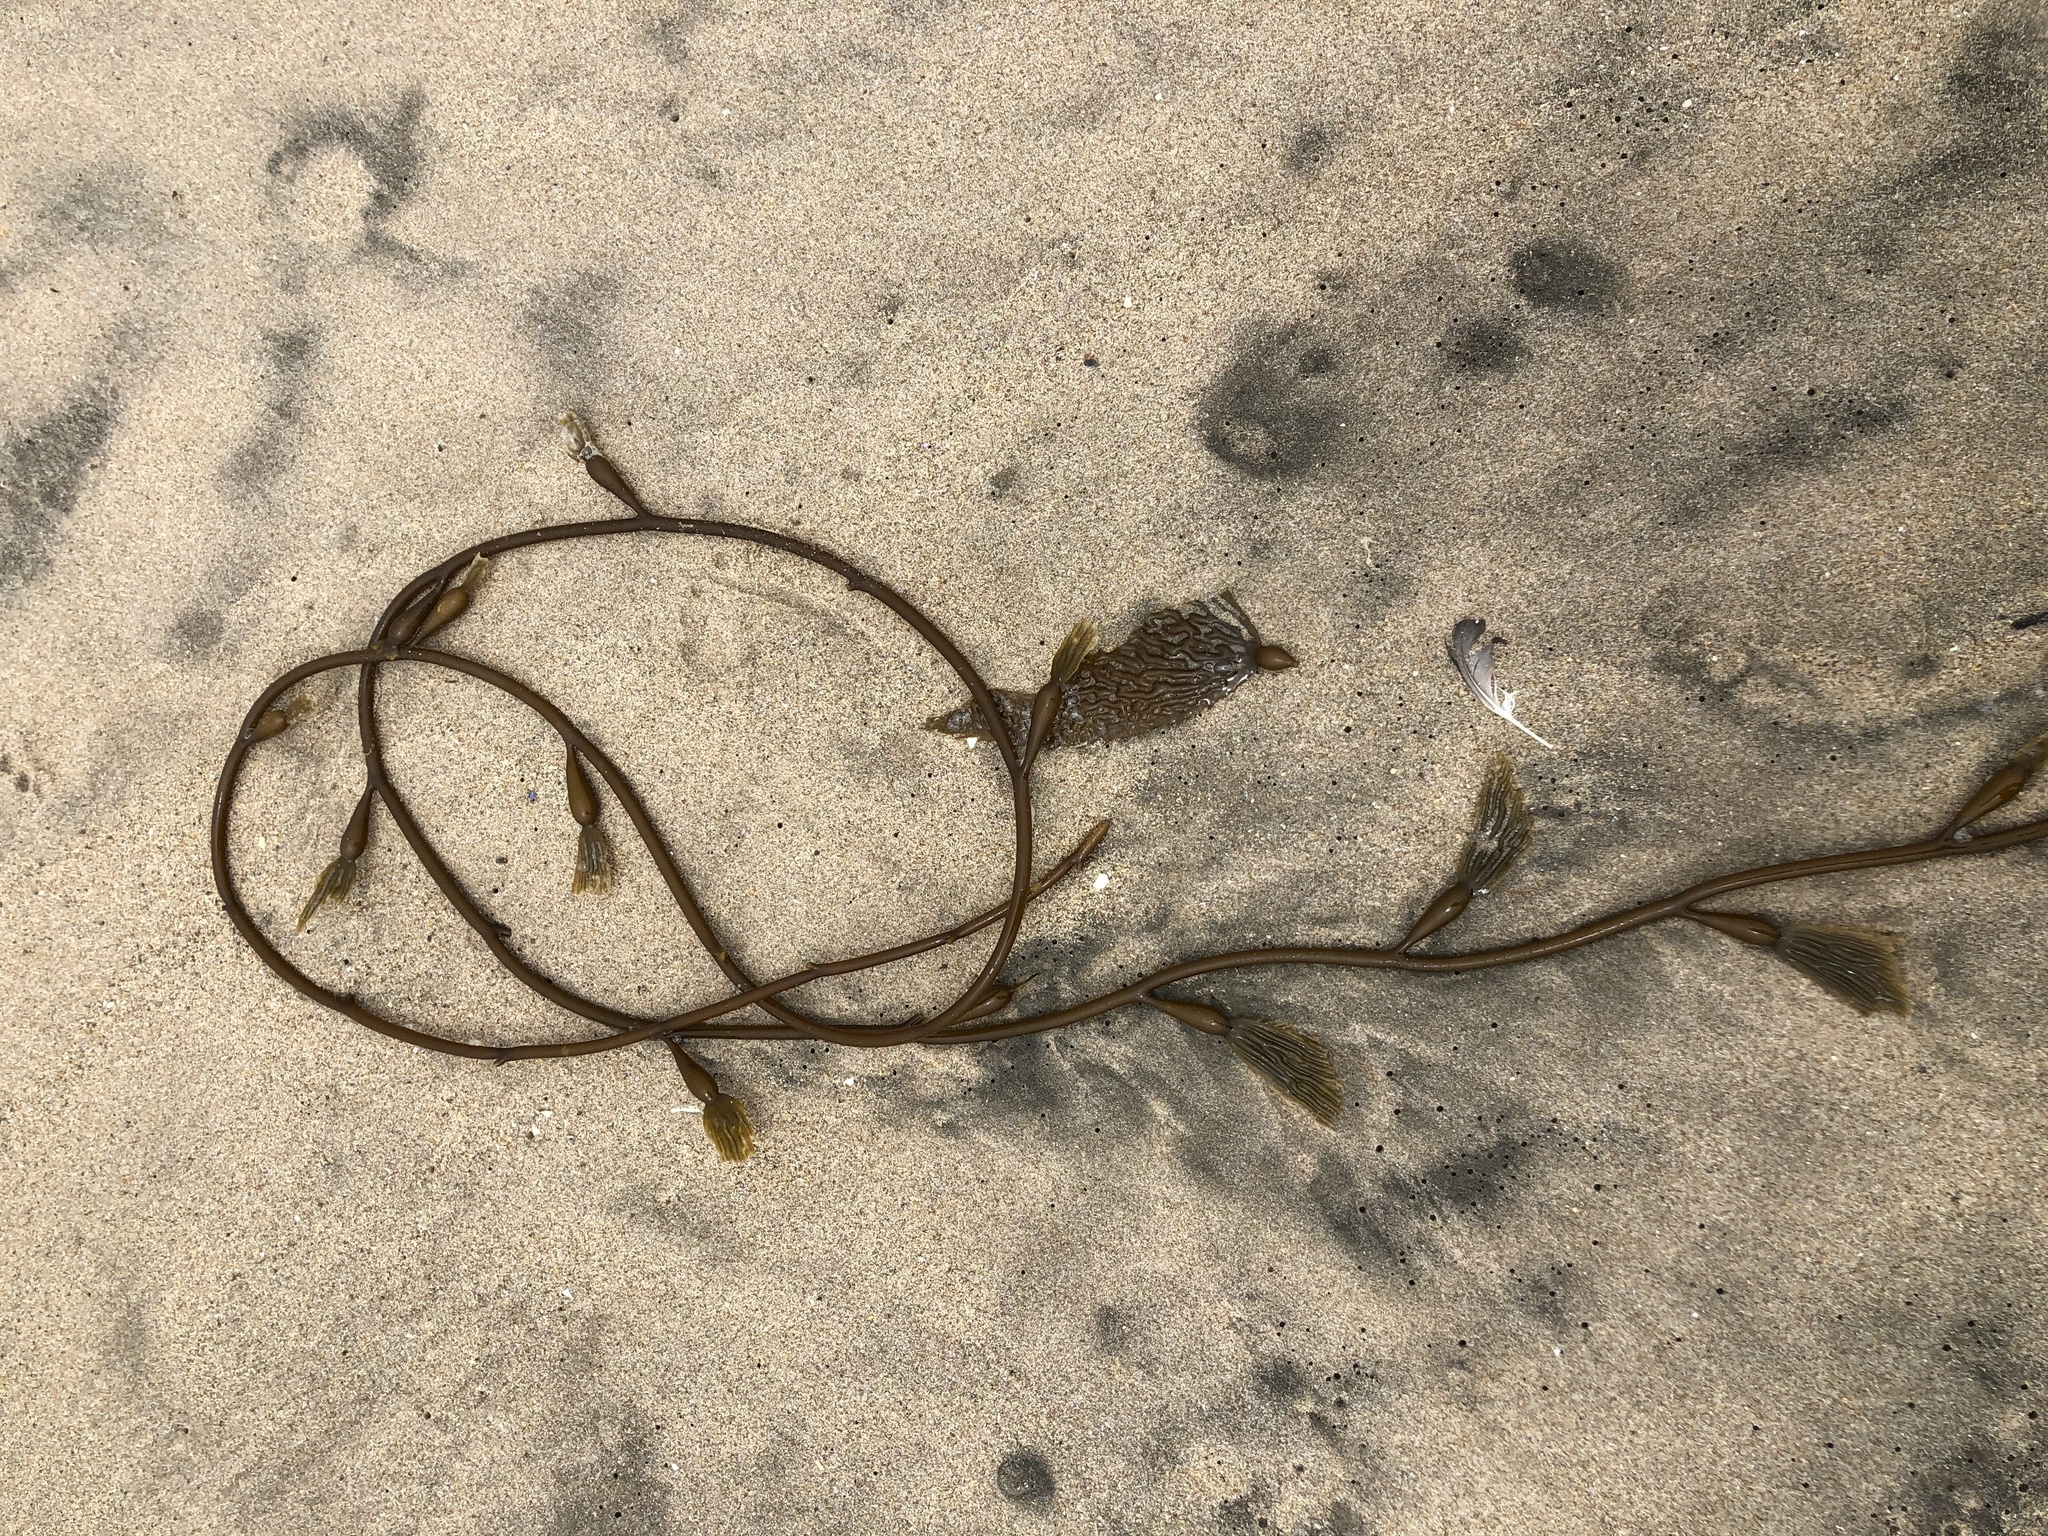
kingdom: Chromista
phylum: Ochrophyta
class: Phaeophyceae
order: Laminariales
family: Laminariaceae
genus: Macrocystis
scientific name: Macrocystis pyrifera
